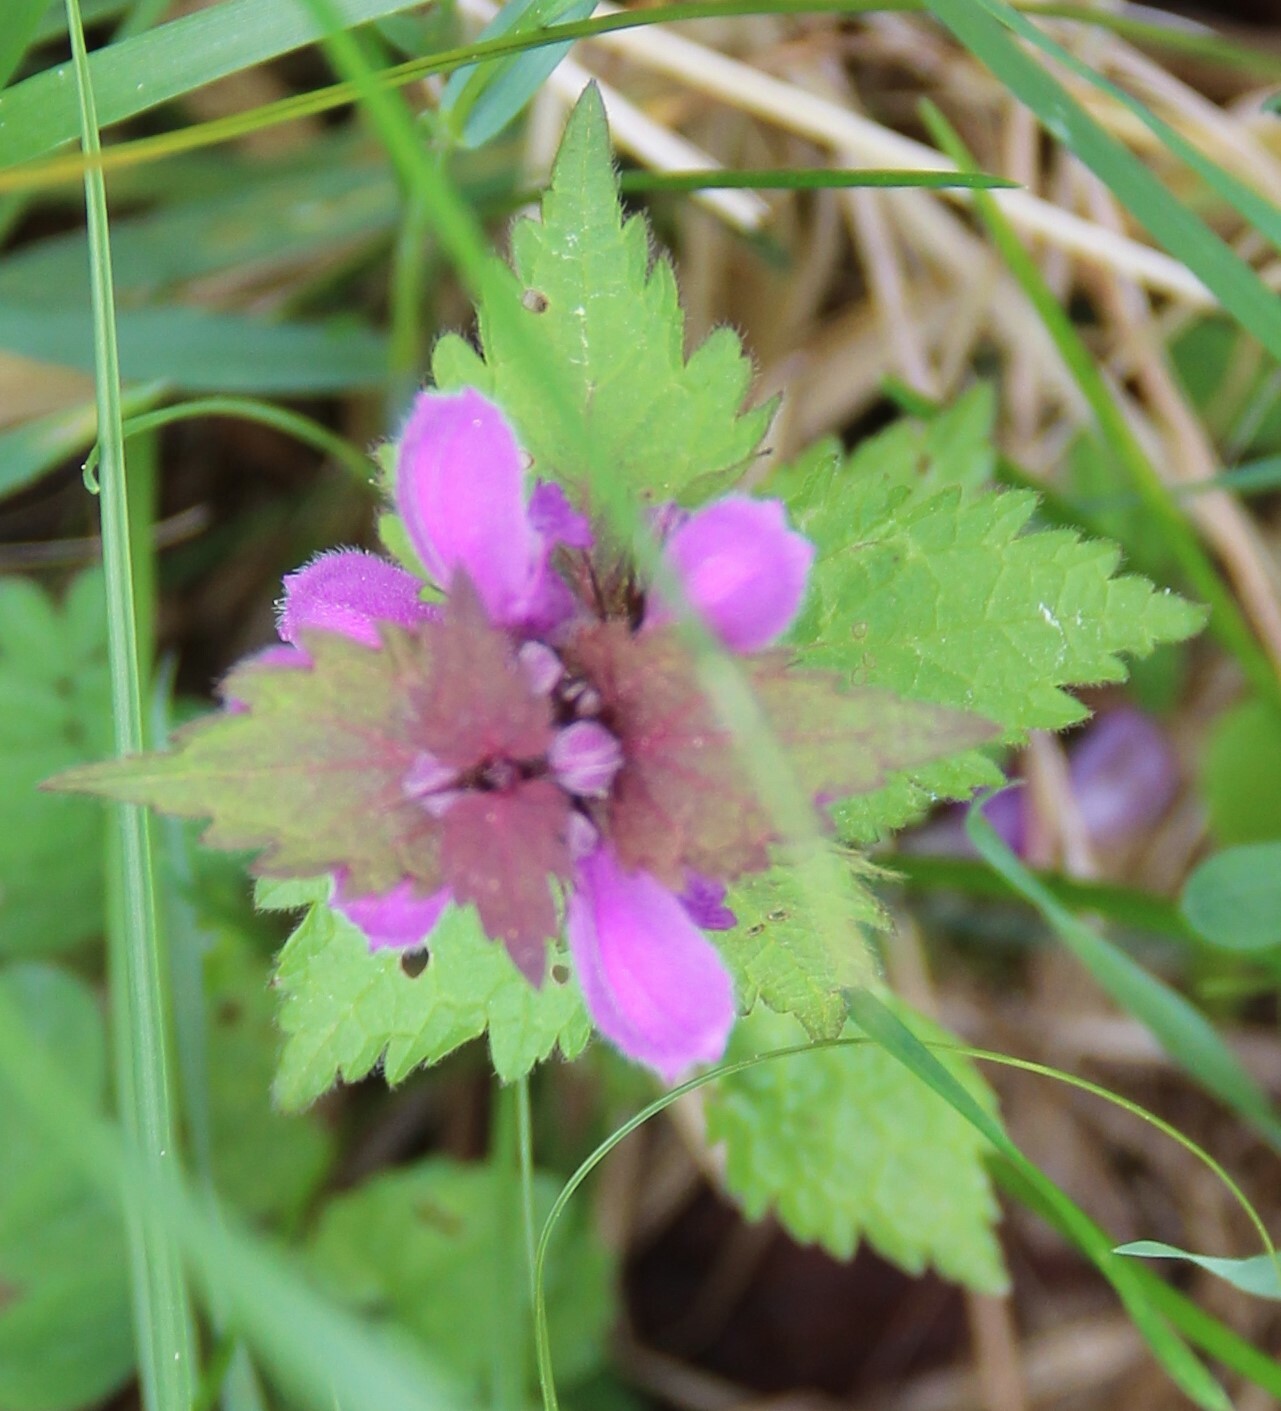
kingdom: Plantae
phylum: Tracheophyta
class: Magnoliopsida
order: Lamiales
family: Lamiaceae
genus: Lamium
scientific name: Lamium maculatum
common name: Spotted dead-nettle
